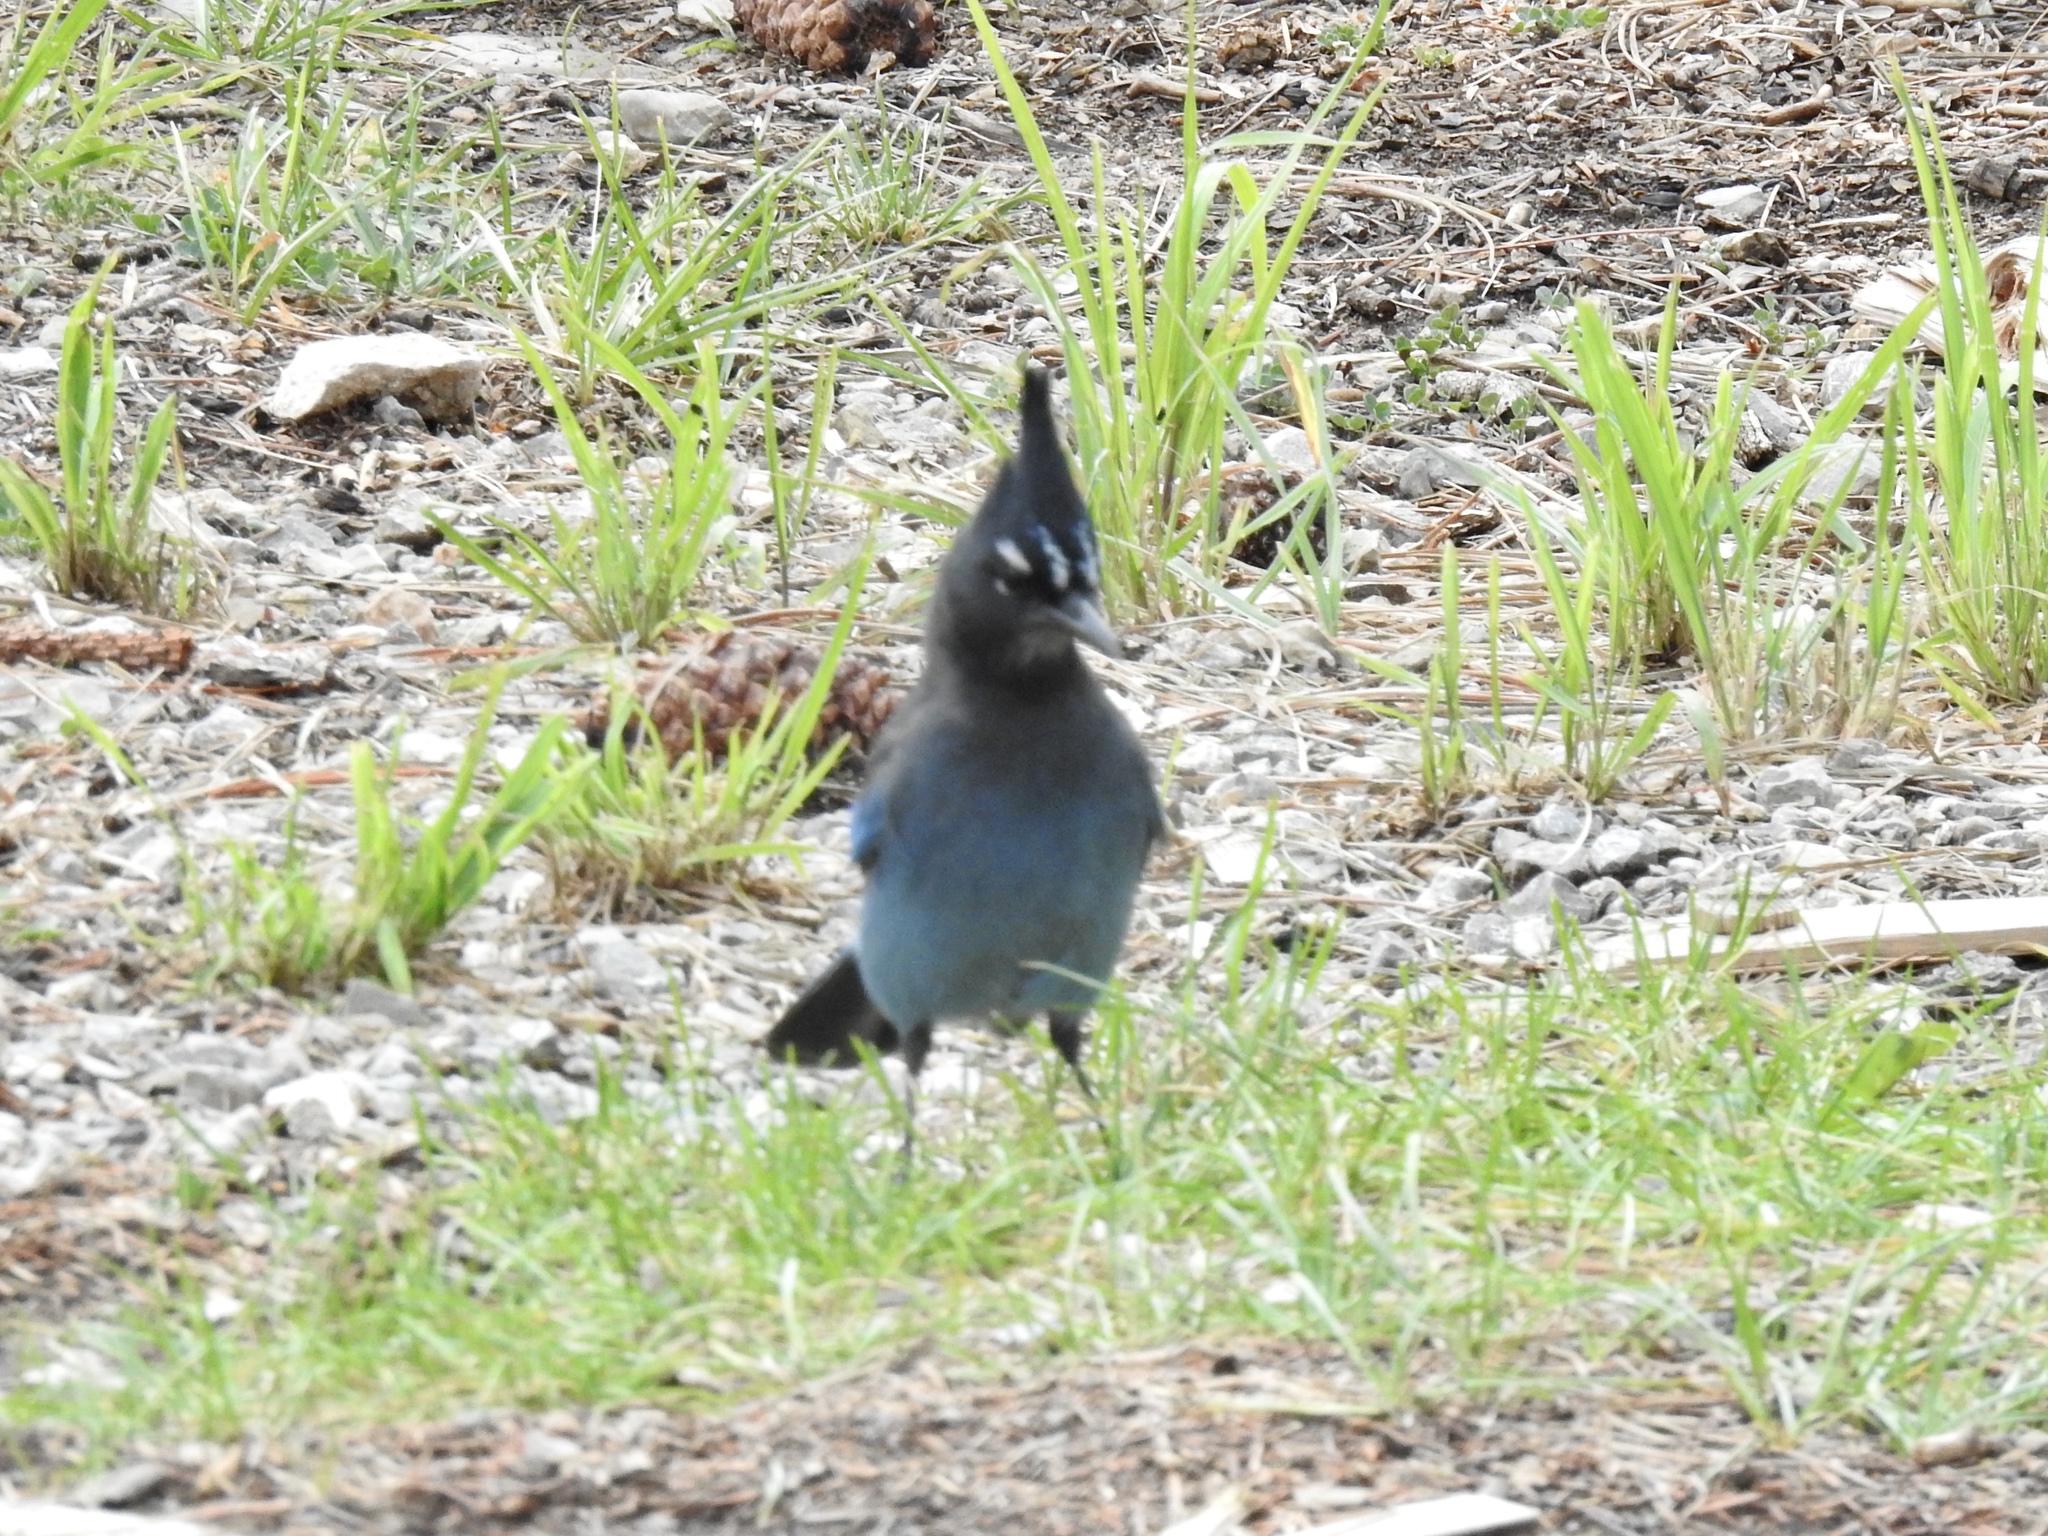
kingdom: Animalia
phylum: Chordata
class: Aves
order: Passeriformes
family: Corvidae
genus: Cyanocitta
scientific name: Cyanocitta stelleri
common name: Steller's jay
